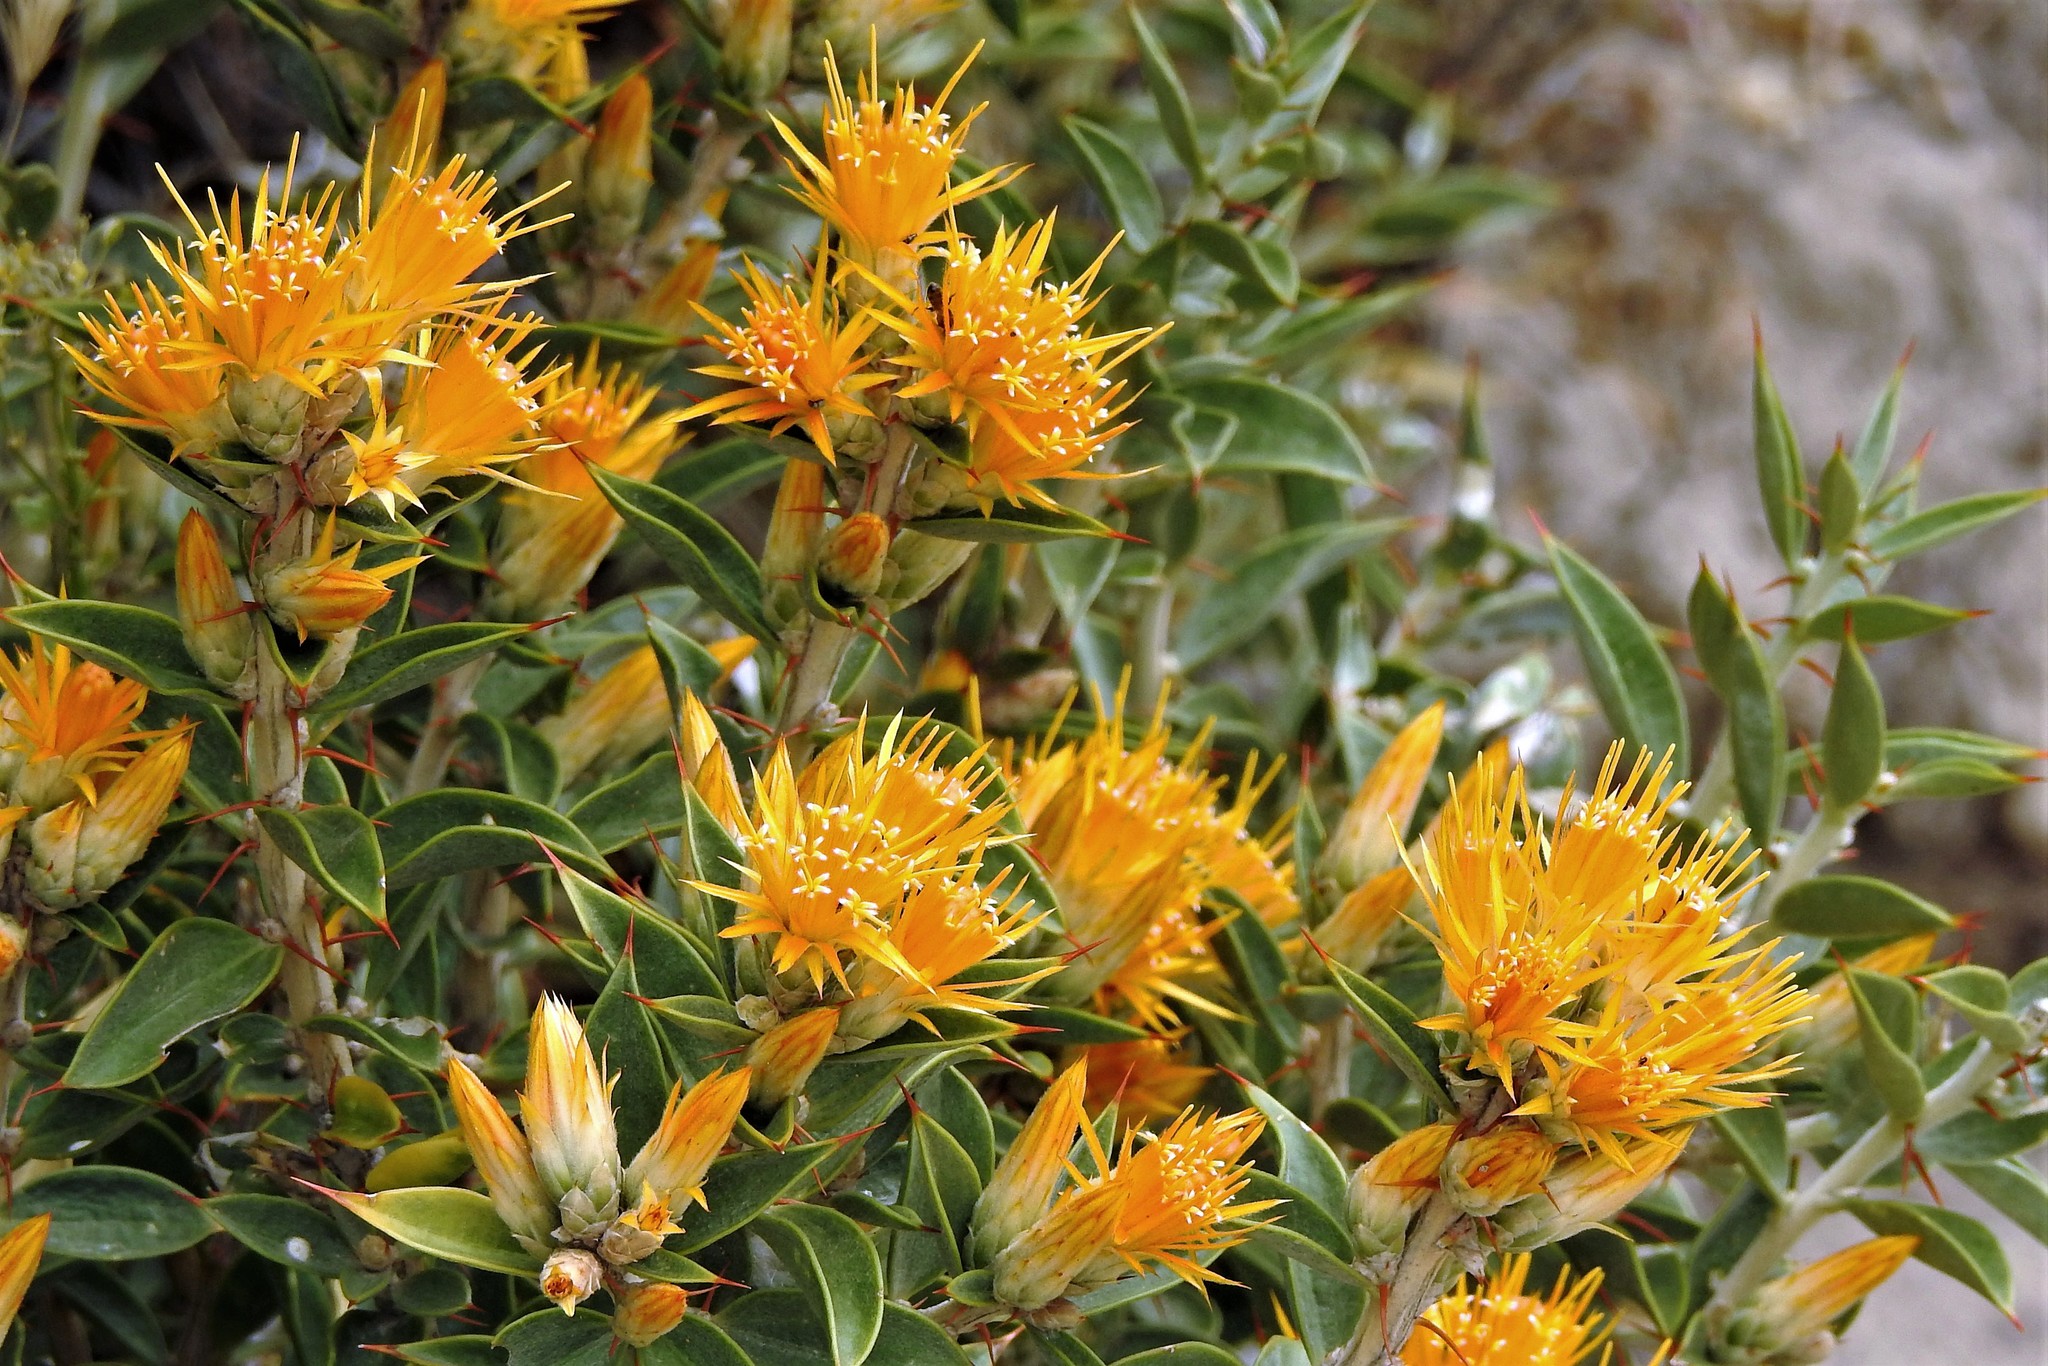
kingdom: Plantae
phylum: Tracheophyta
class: Magnoliopsida
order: Asterales
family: Asteraceae
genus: Chuquiraga
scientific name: Chuquiraga avellanedae
